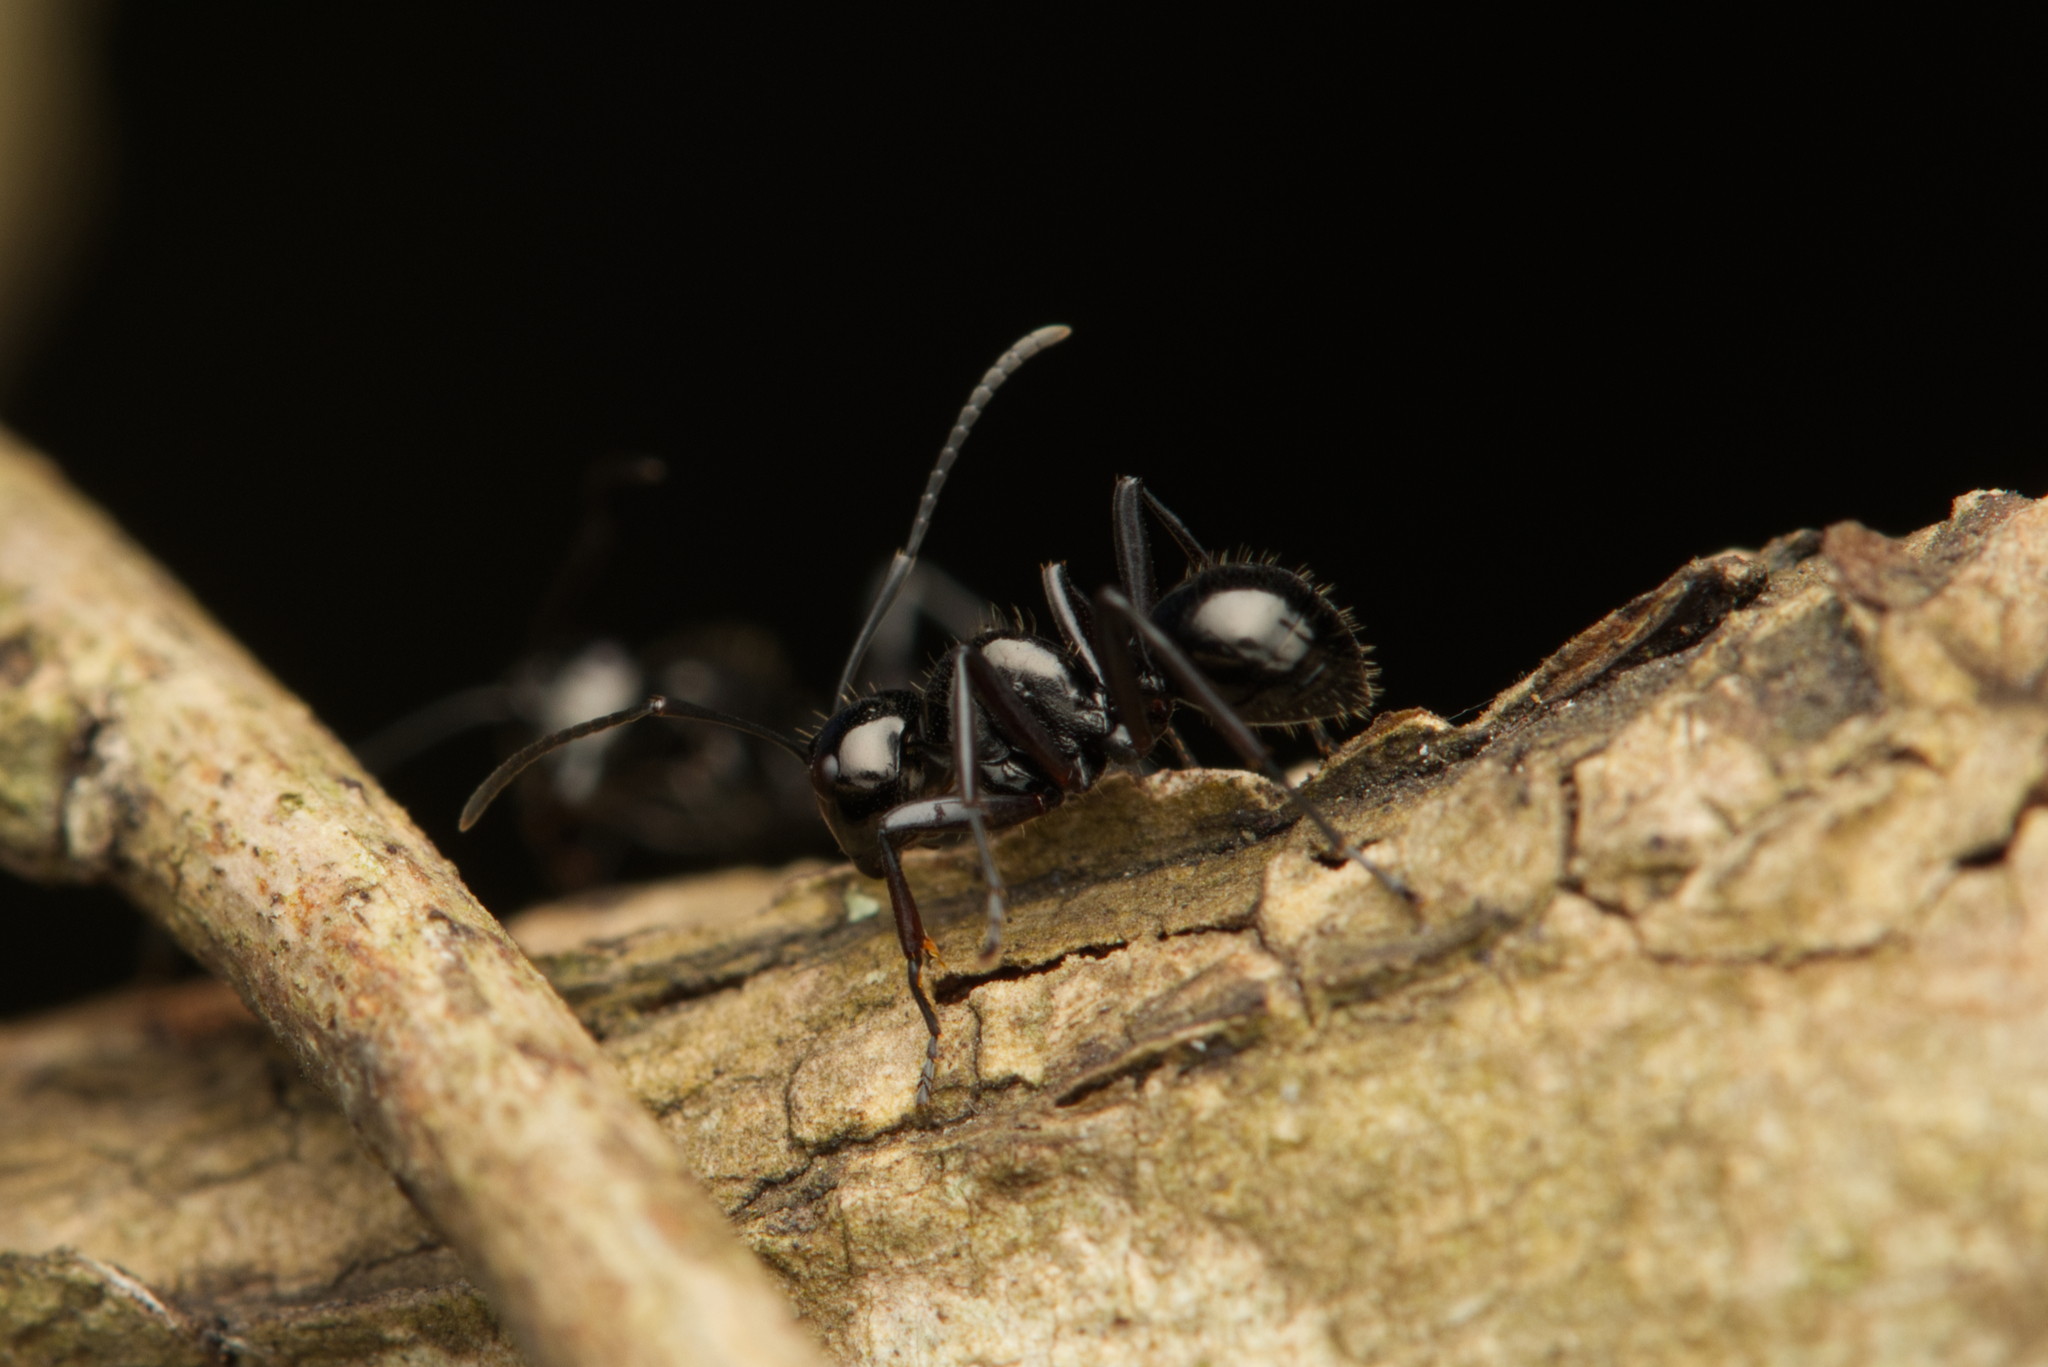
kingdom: Animalia
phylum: Arthropoda
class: Insecta
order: Hymenoptera
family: Formicidae
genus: Polyrhachis
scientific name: Polyrhachis pilosa
